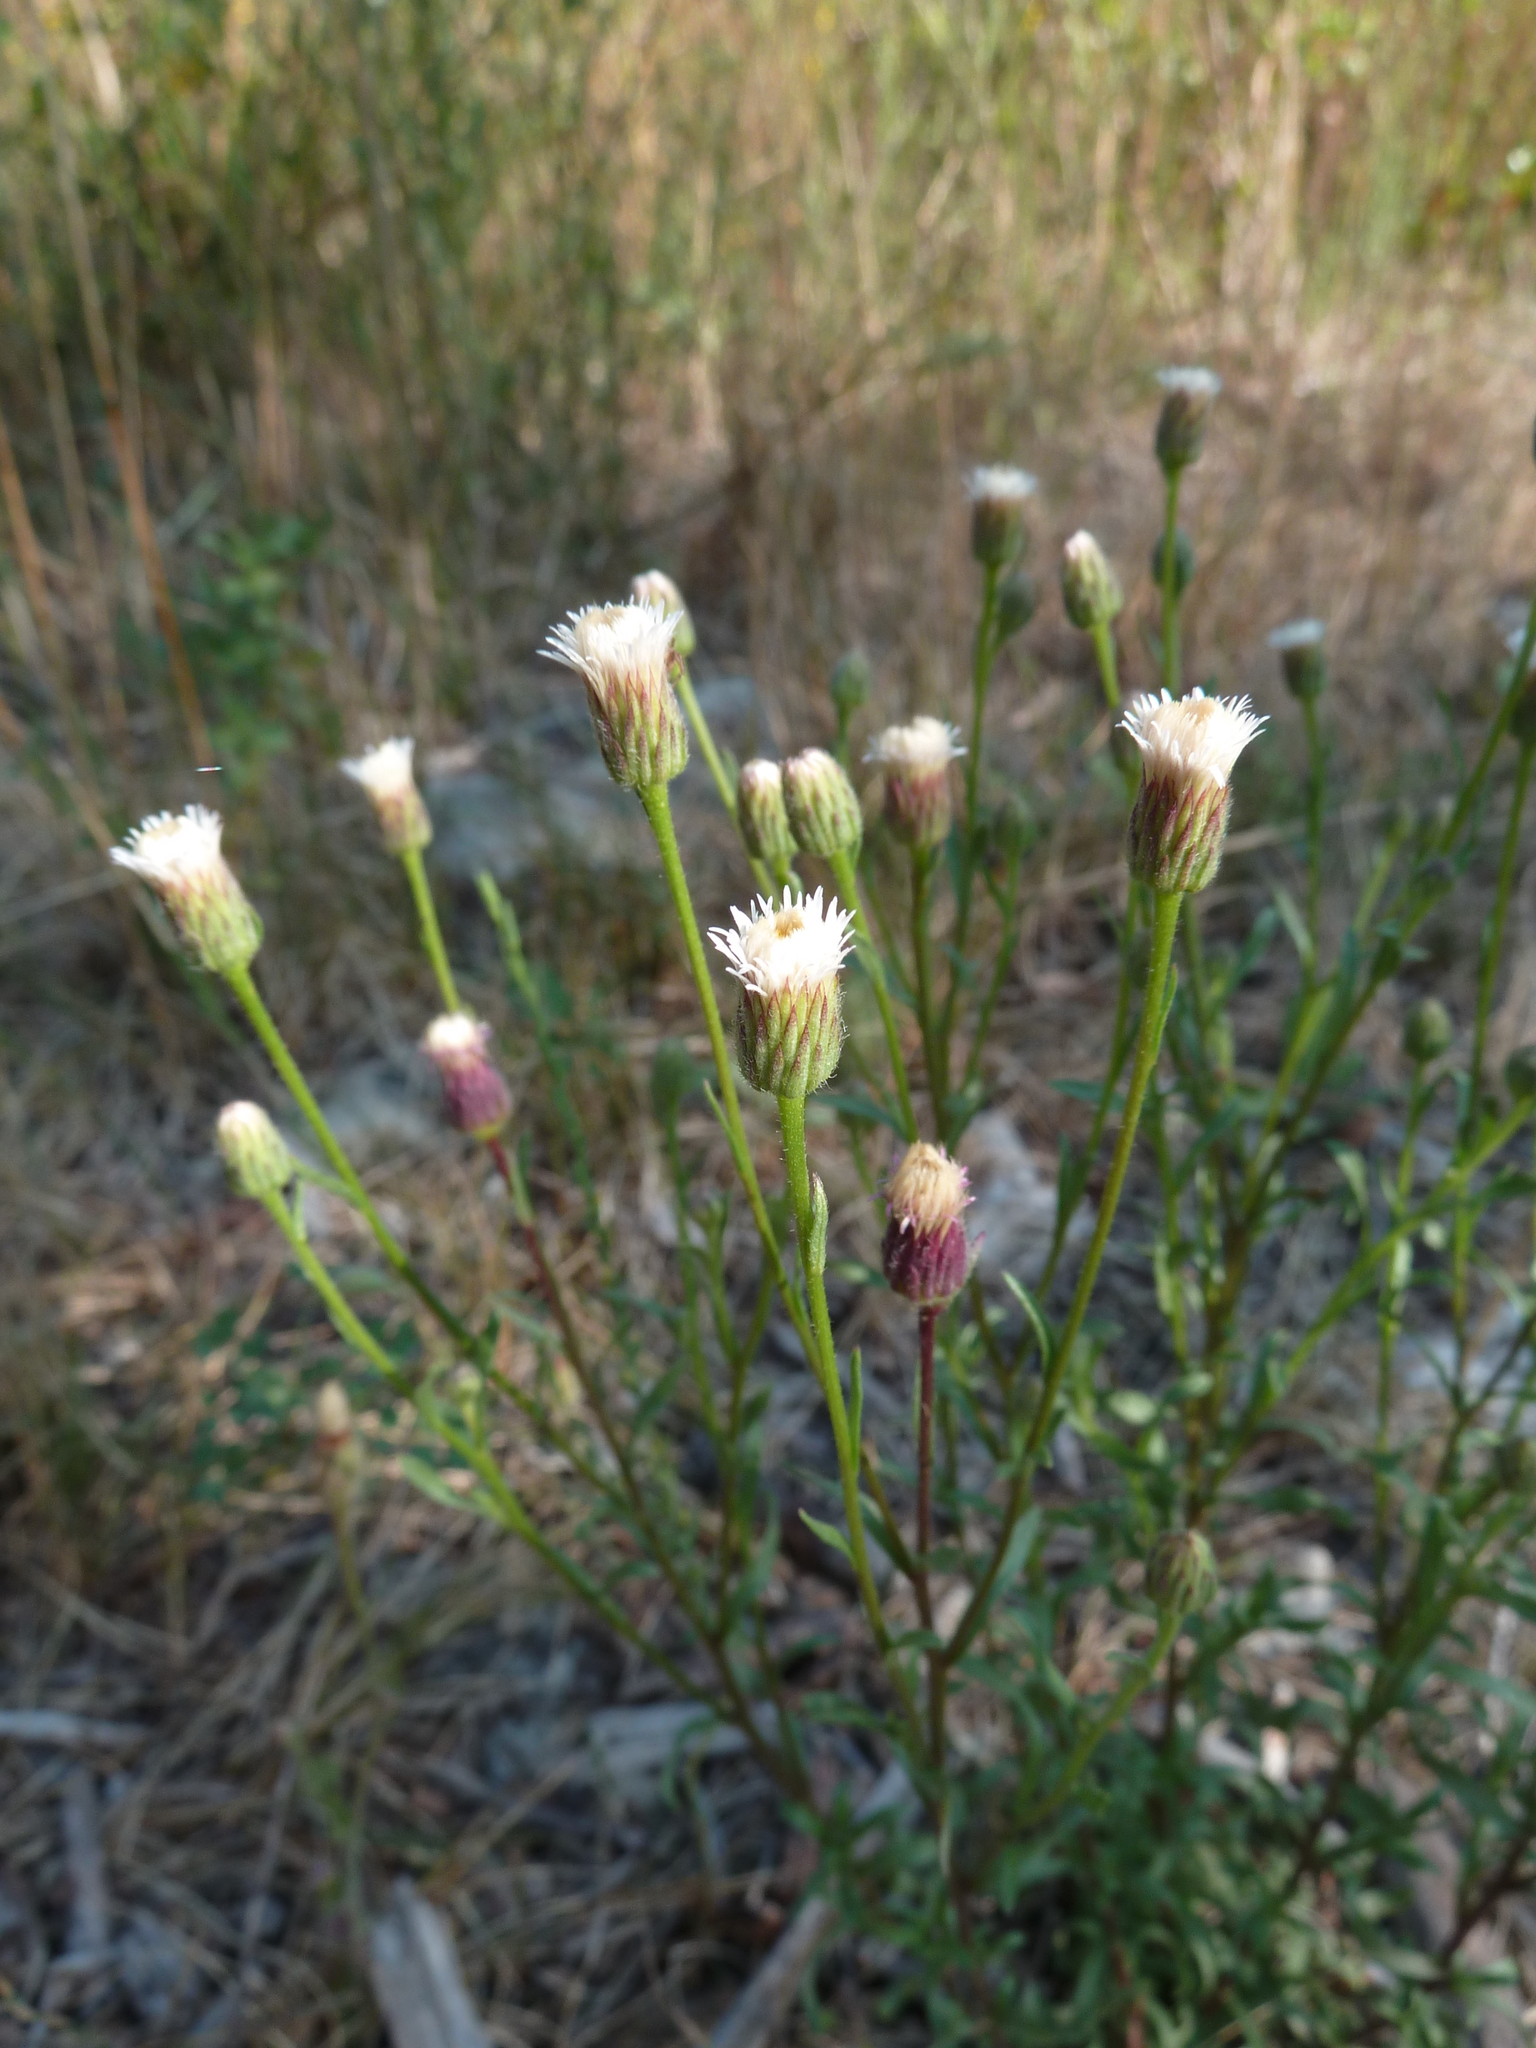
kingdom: Plantae
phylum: Tracheophyta
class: Magnoliopsida
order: Asterales
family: Asteraceae
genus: Erigeron
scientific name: Erigeron acris
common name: Blue fleabane
